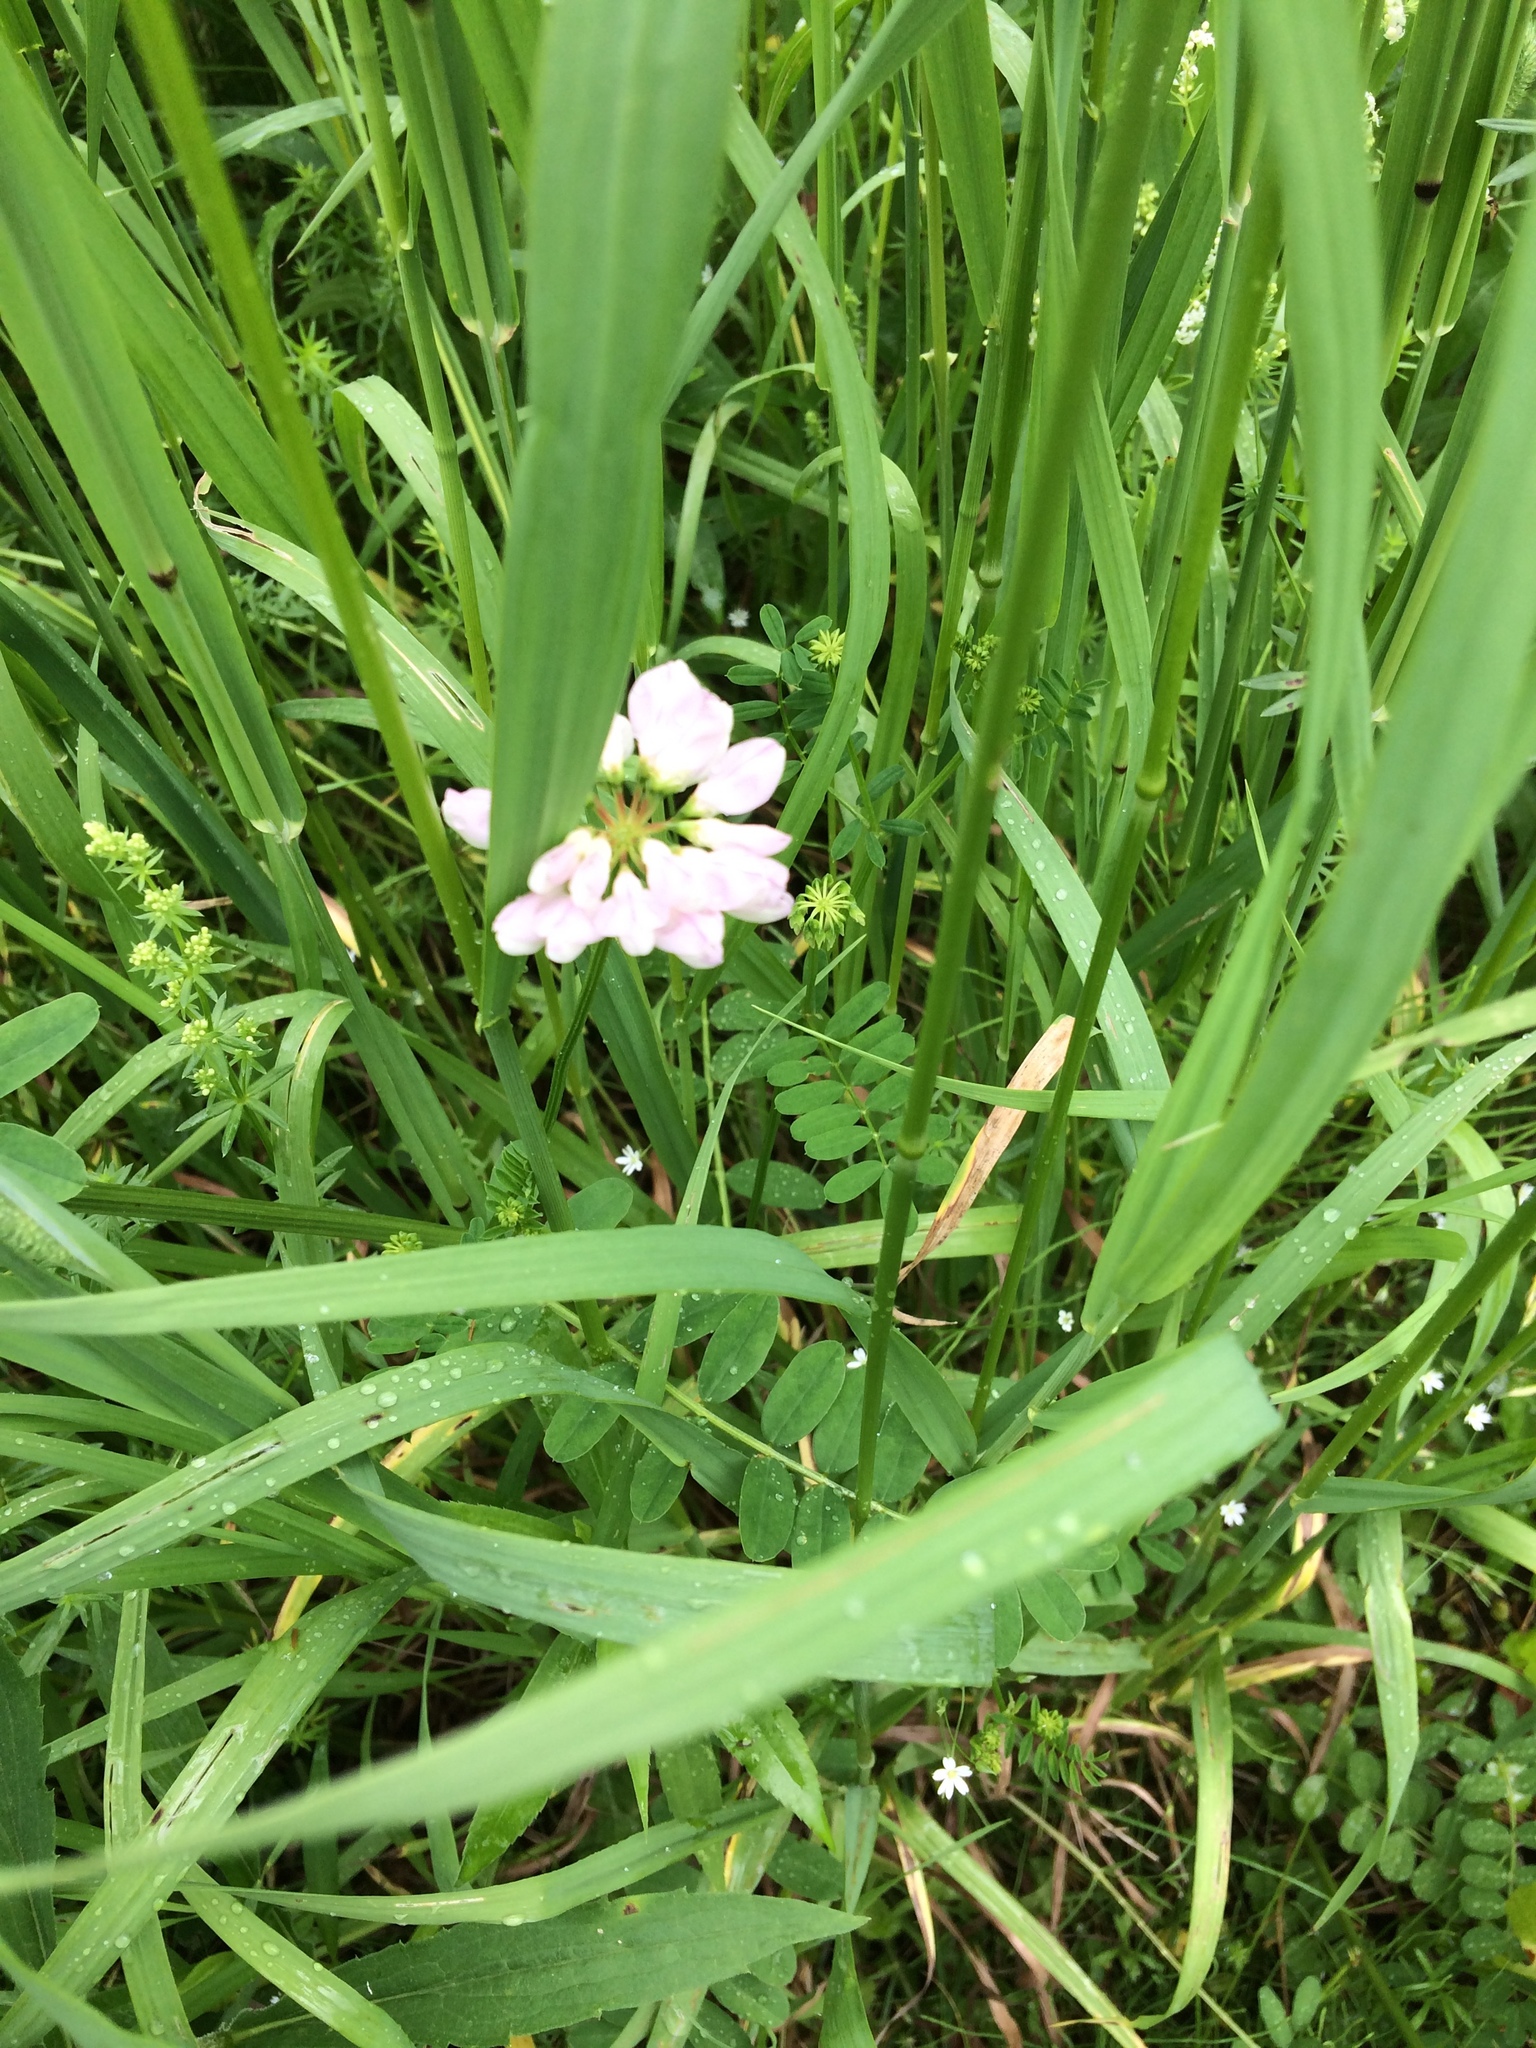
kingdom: Plantae
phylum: Tracheophyta
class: Magnoliopsida
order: Fabales
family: Fabaceae
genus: Coronilla
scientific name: Coronilla varia
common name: Crownvetch
